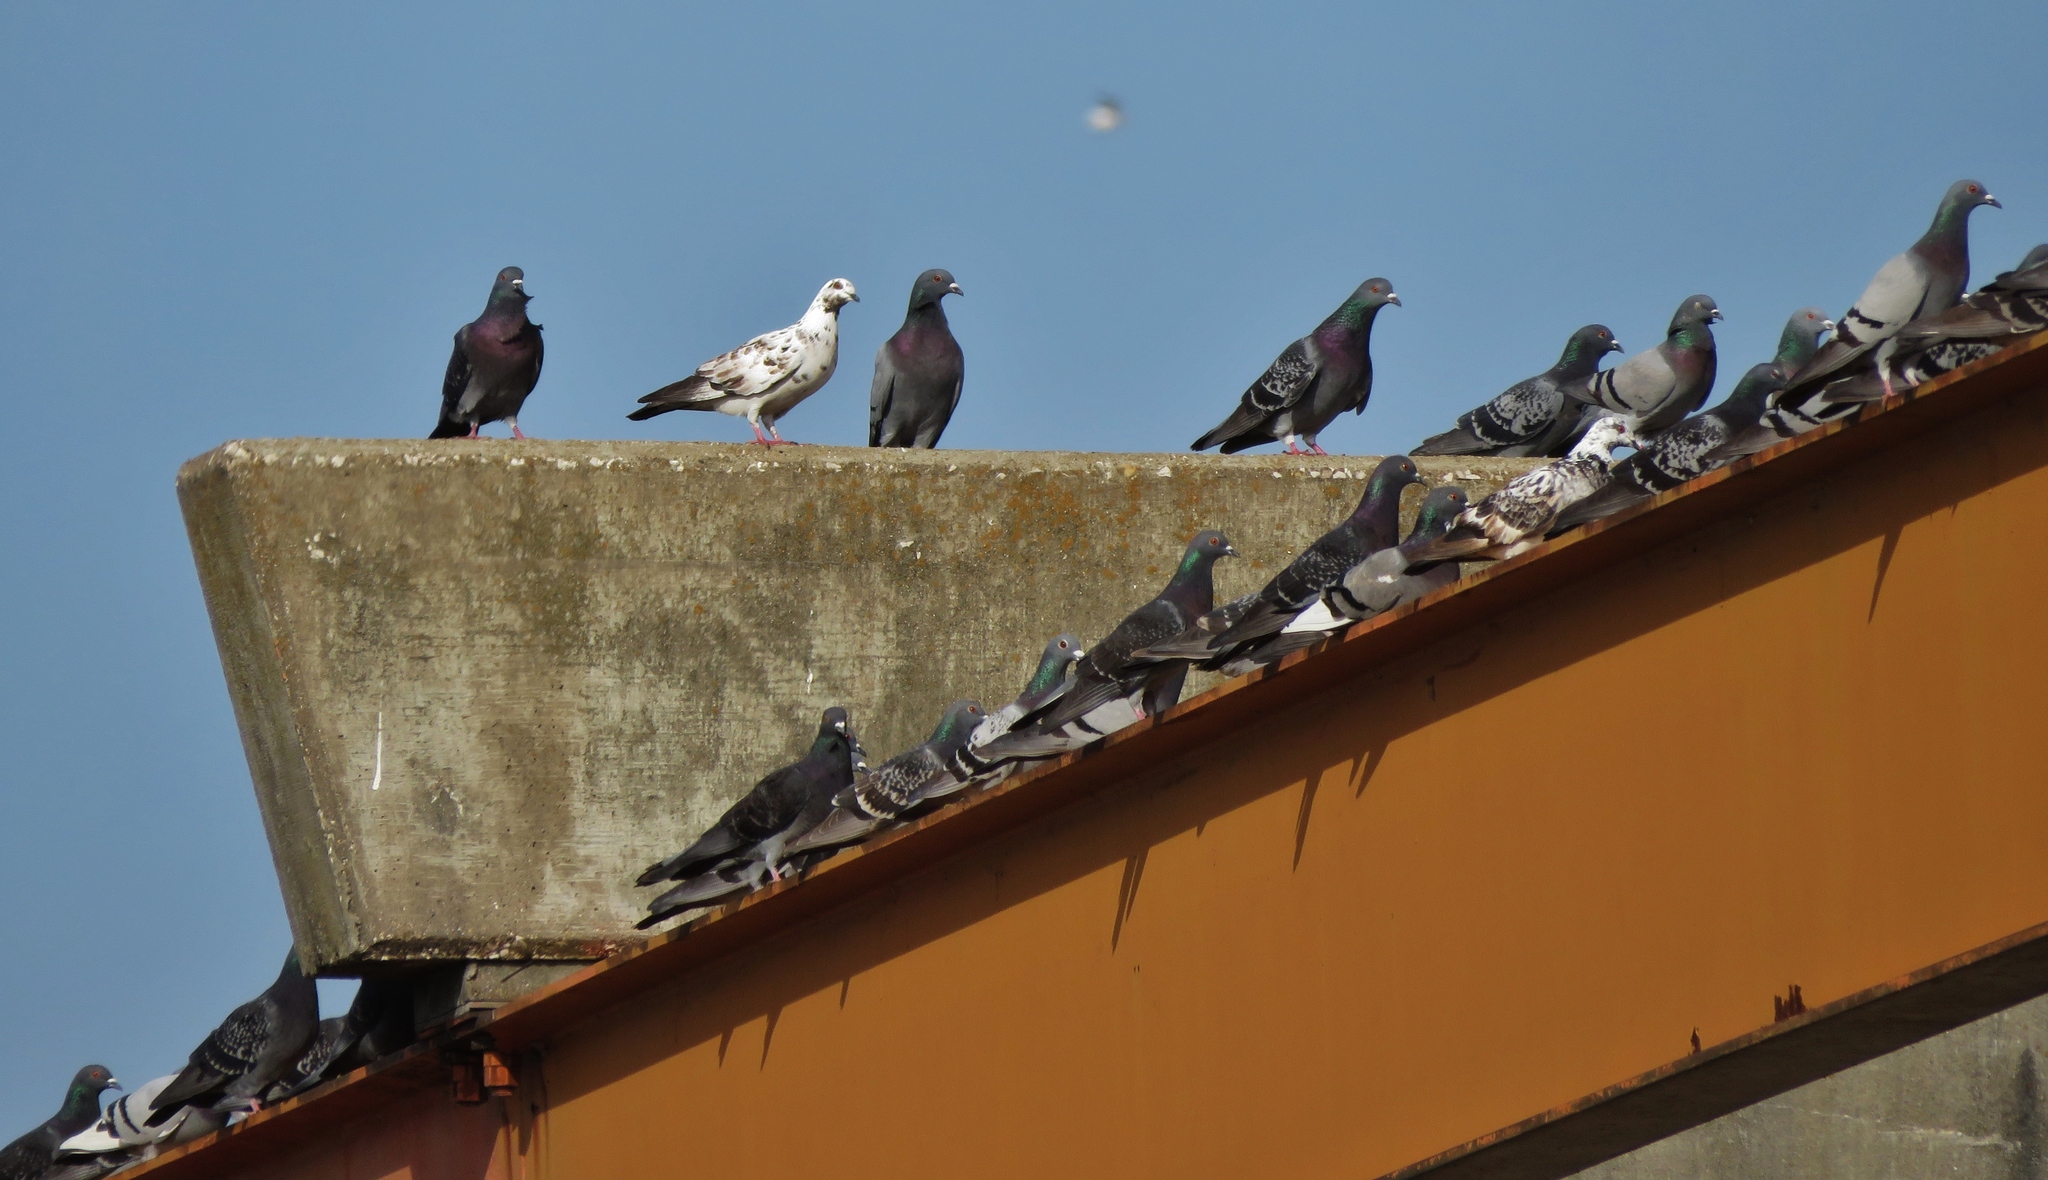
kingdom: Animalia
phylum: Chordata
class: Aves
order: Columbiformes
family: Columbidae
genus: Columba
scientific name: Columba livia
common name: Rock pigeon
